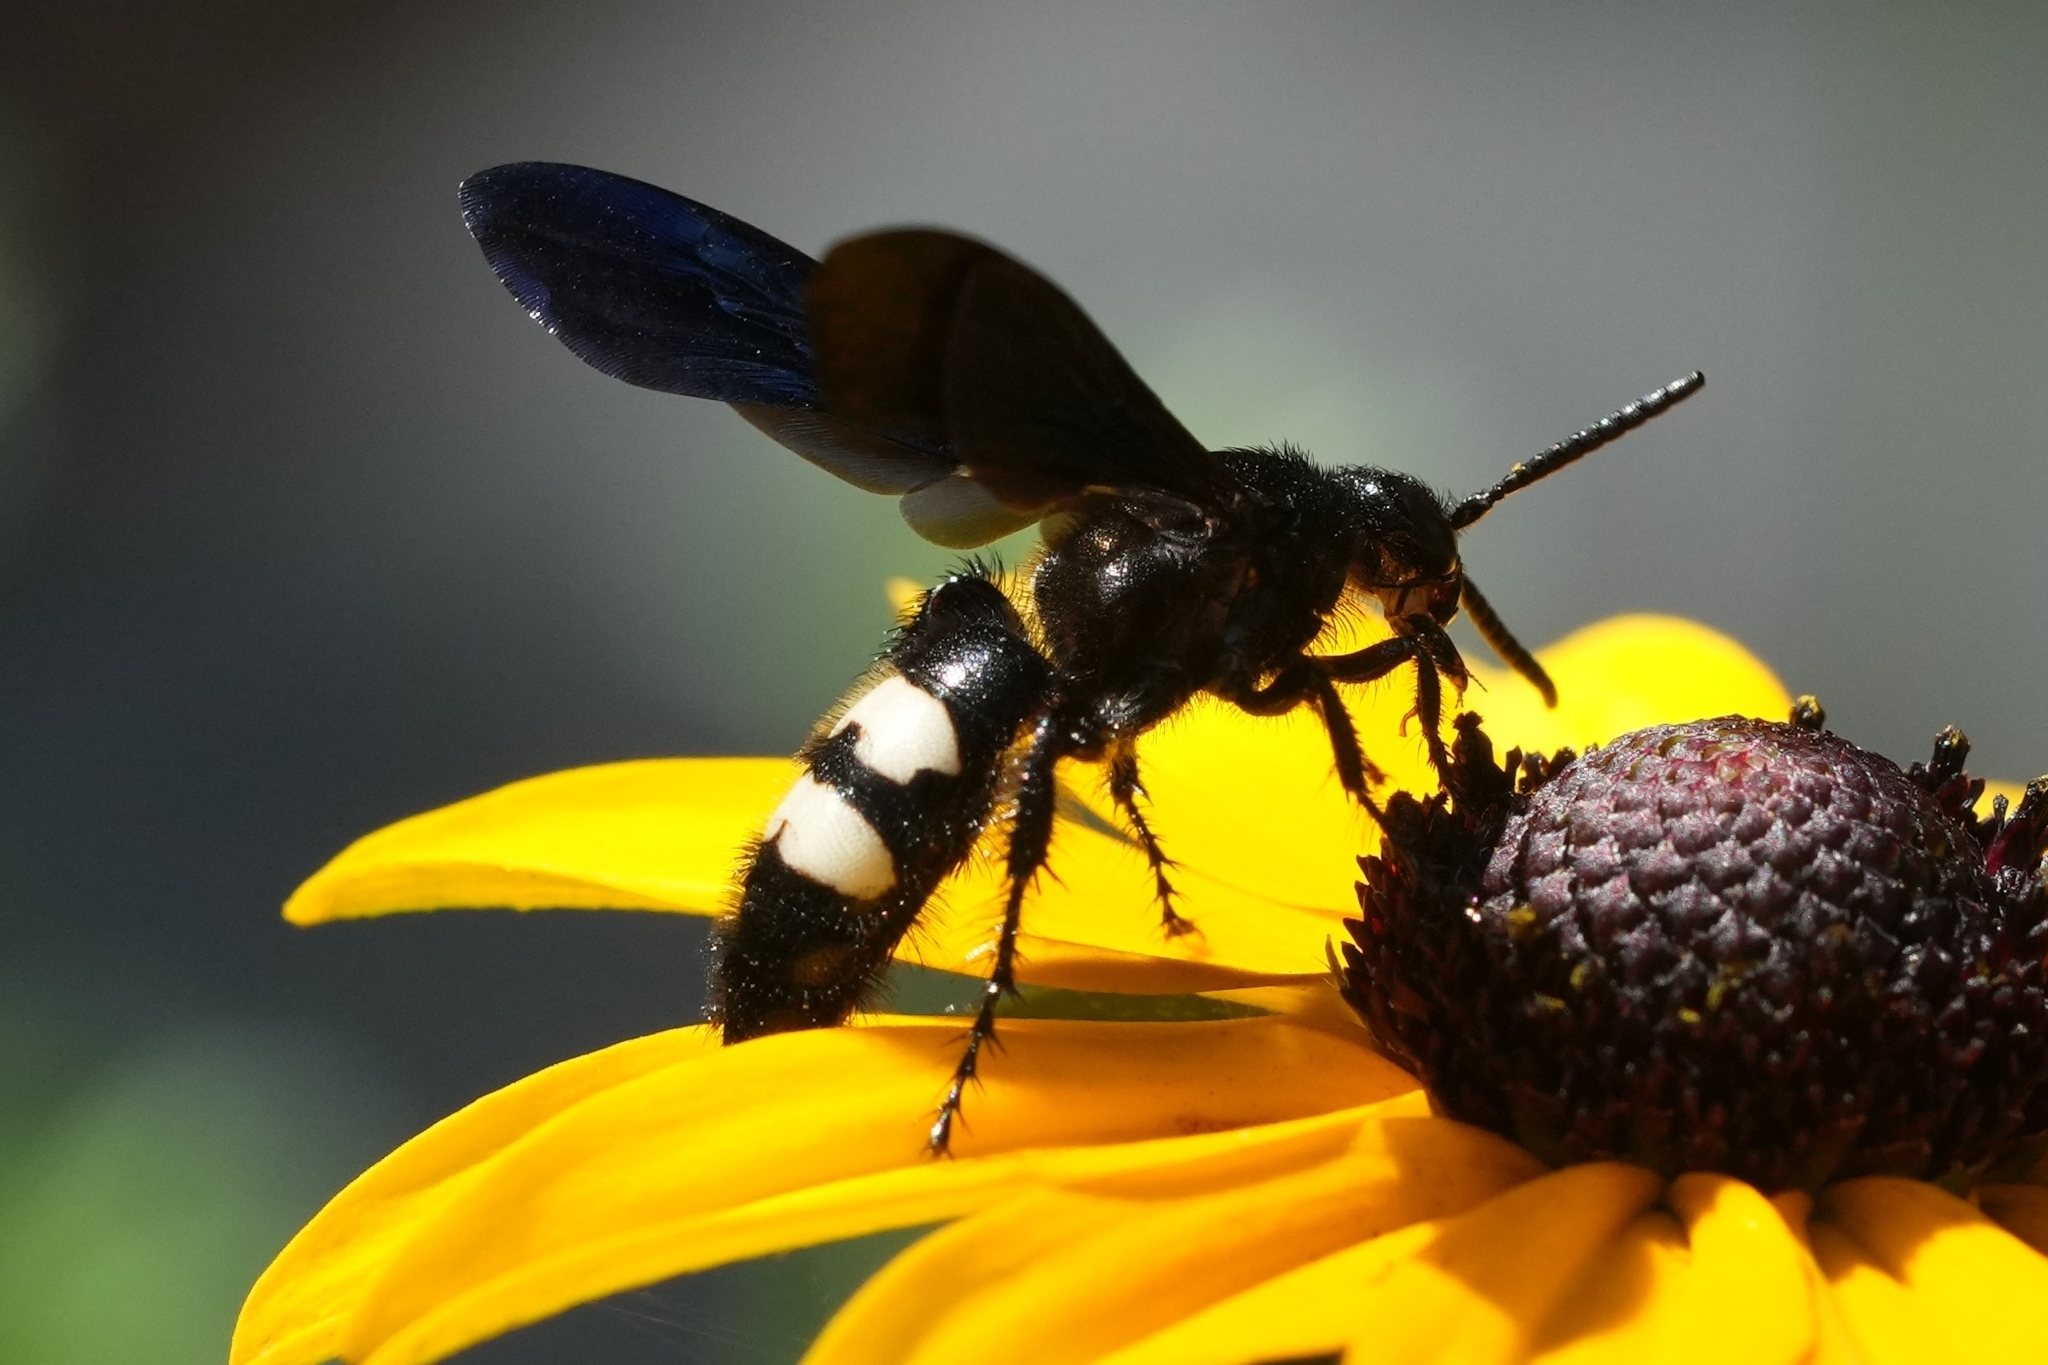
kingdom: Animalia
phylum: Arthropoda
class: Insecta
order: Hymenoptera
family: Scoliidae
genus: Scolia
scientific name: Scolia bicincta
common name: Double-banded scoliid wasp
